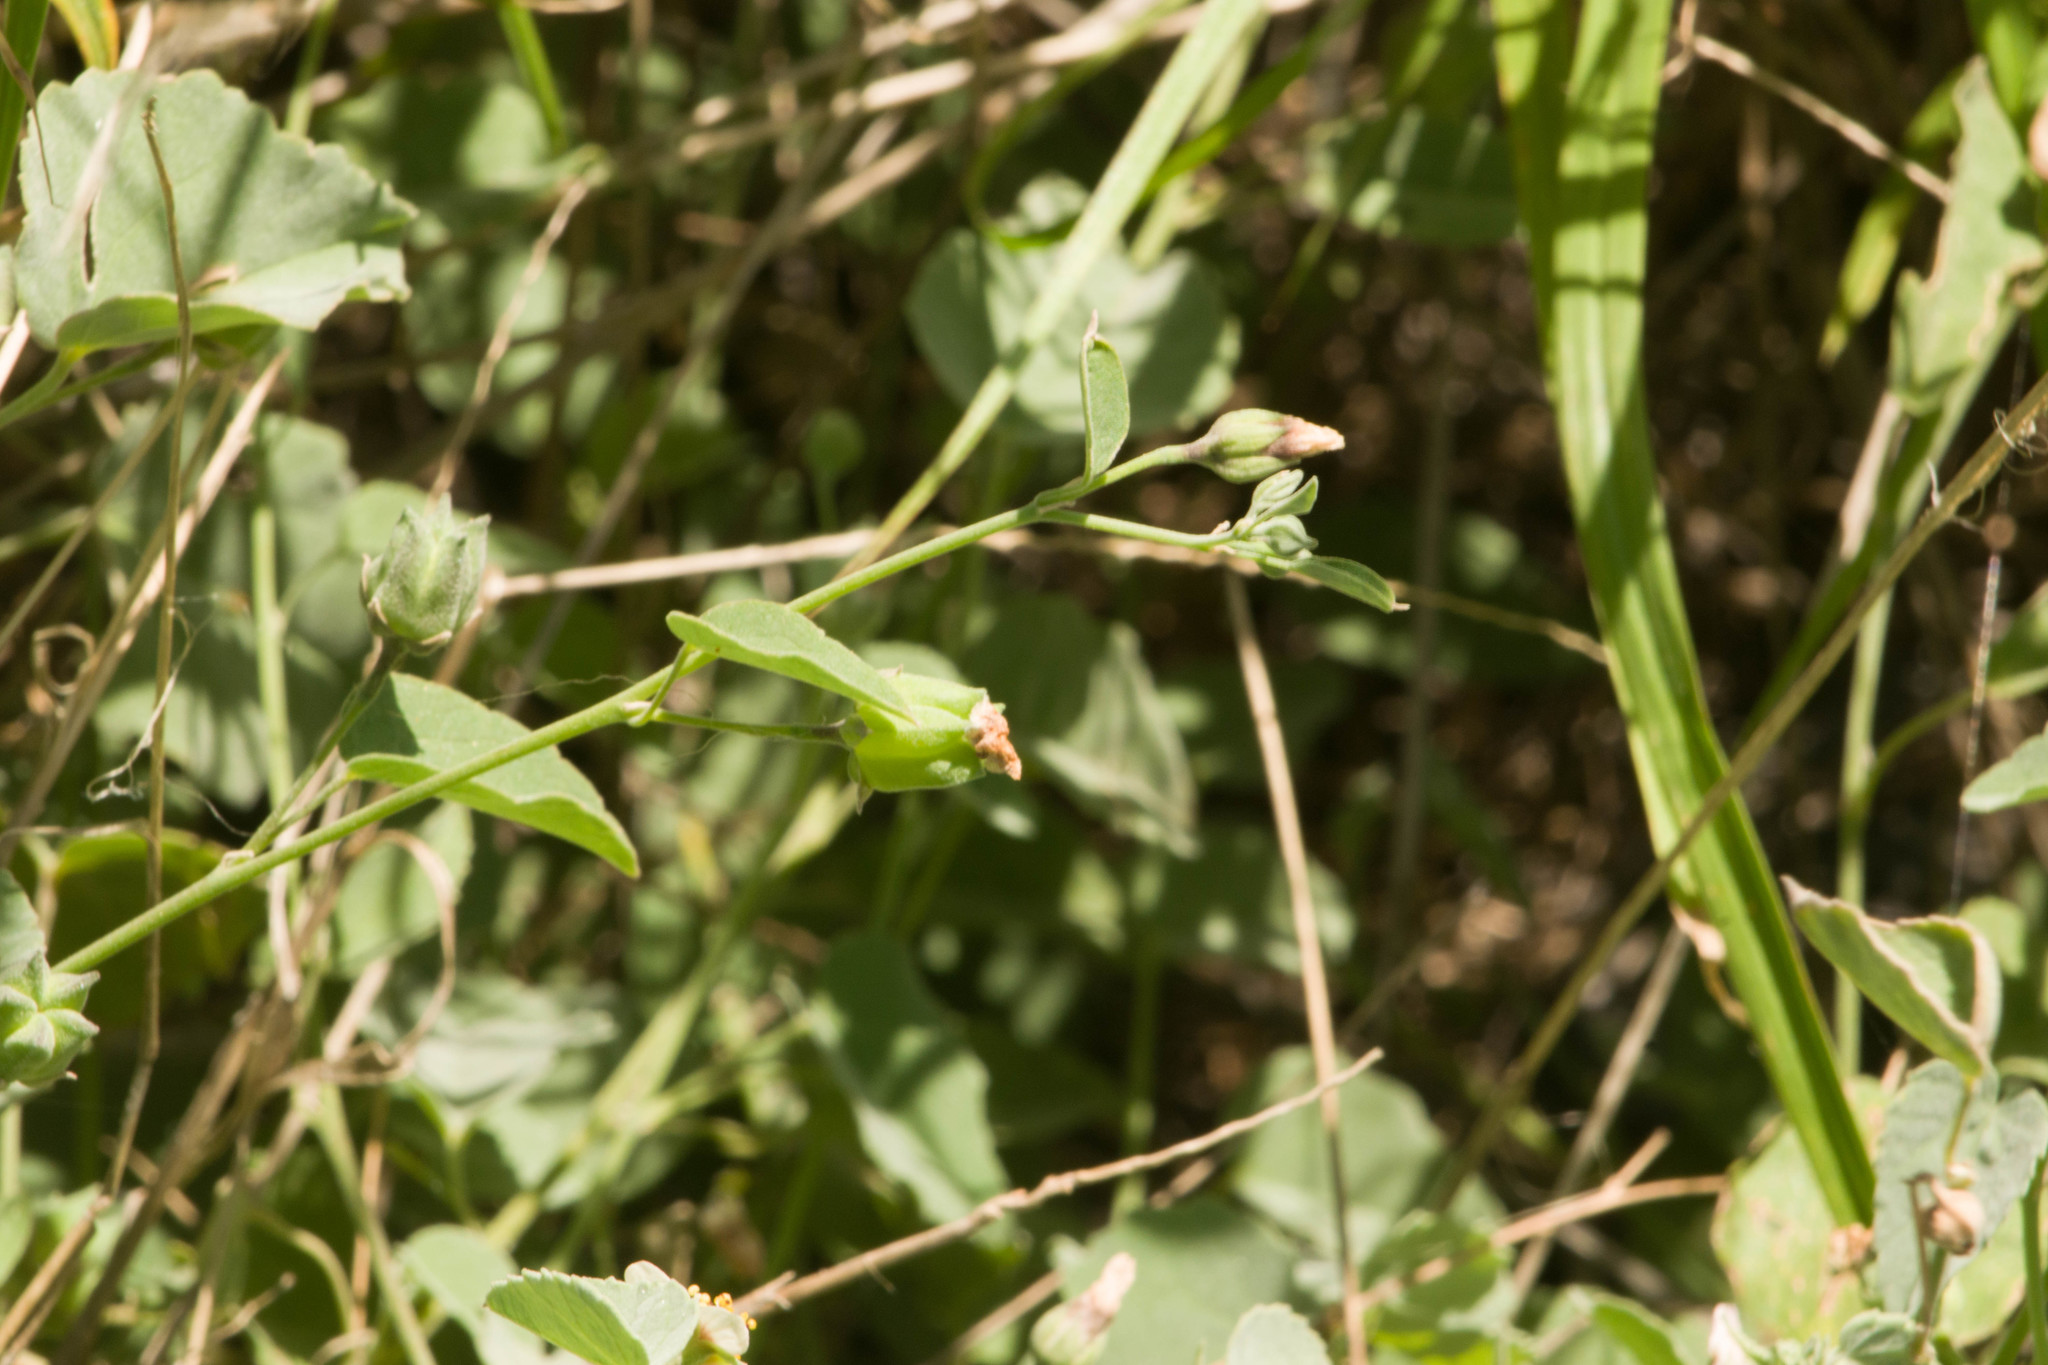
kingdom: Plantae
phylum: Tracheophyta
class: Magnoliopsida
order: Malvales
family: Malvaceae
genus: Abutilon
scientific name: Abutilon incanum
